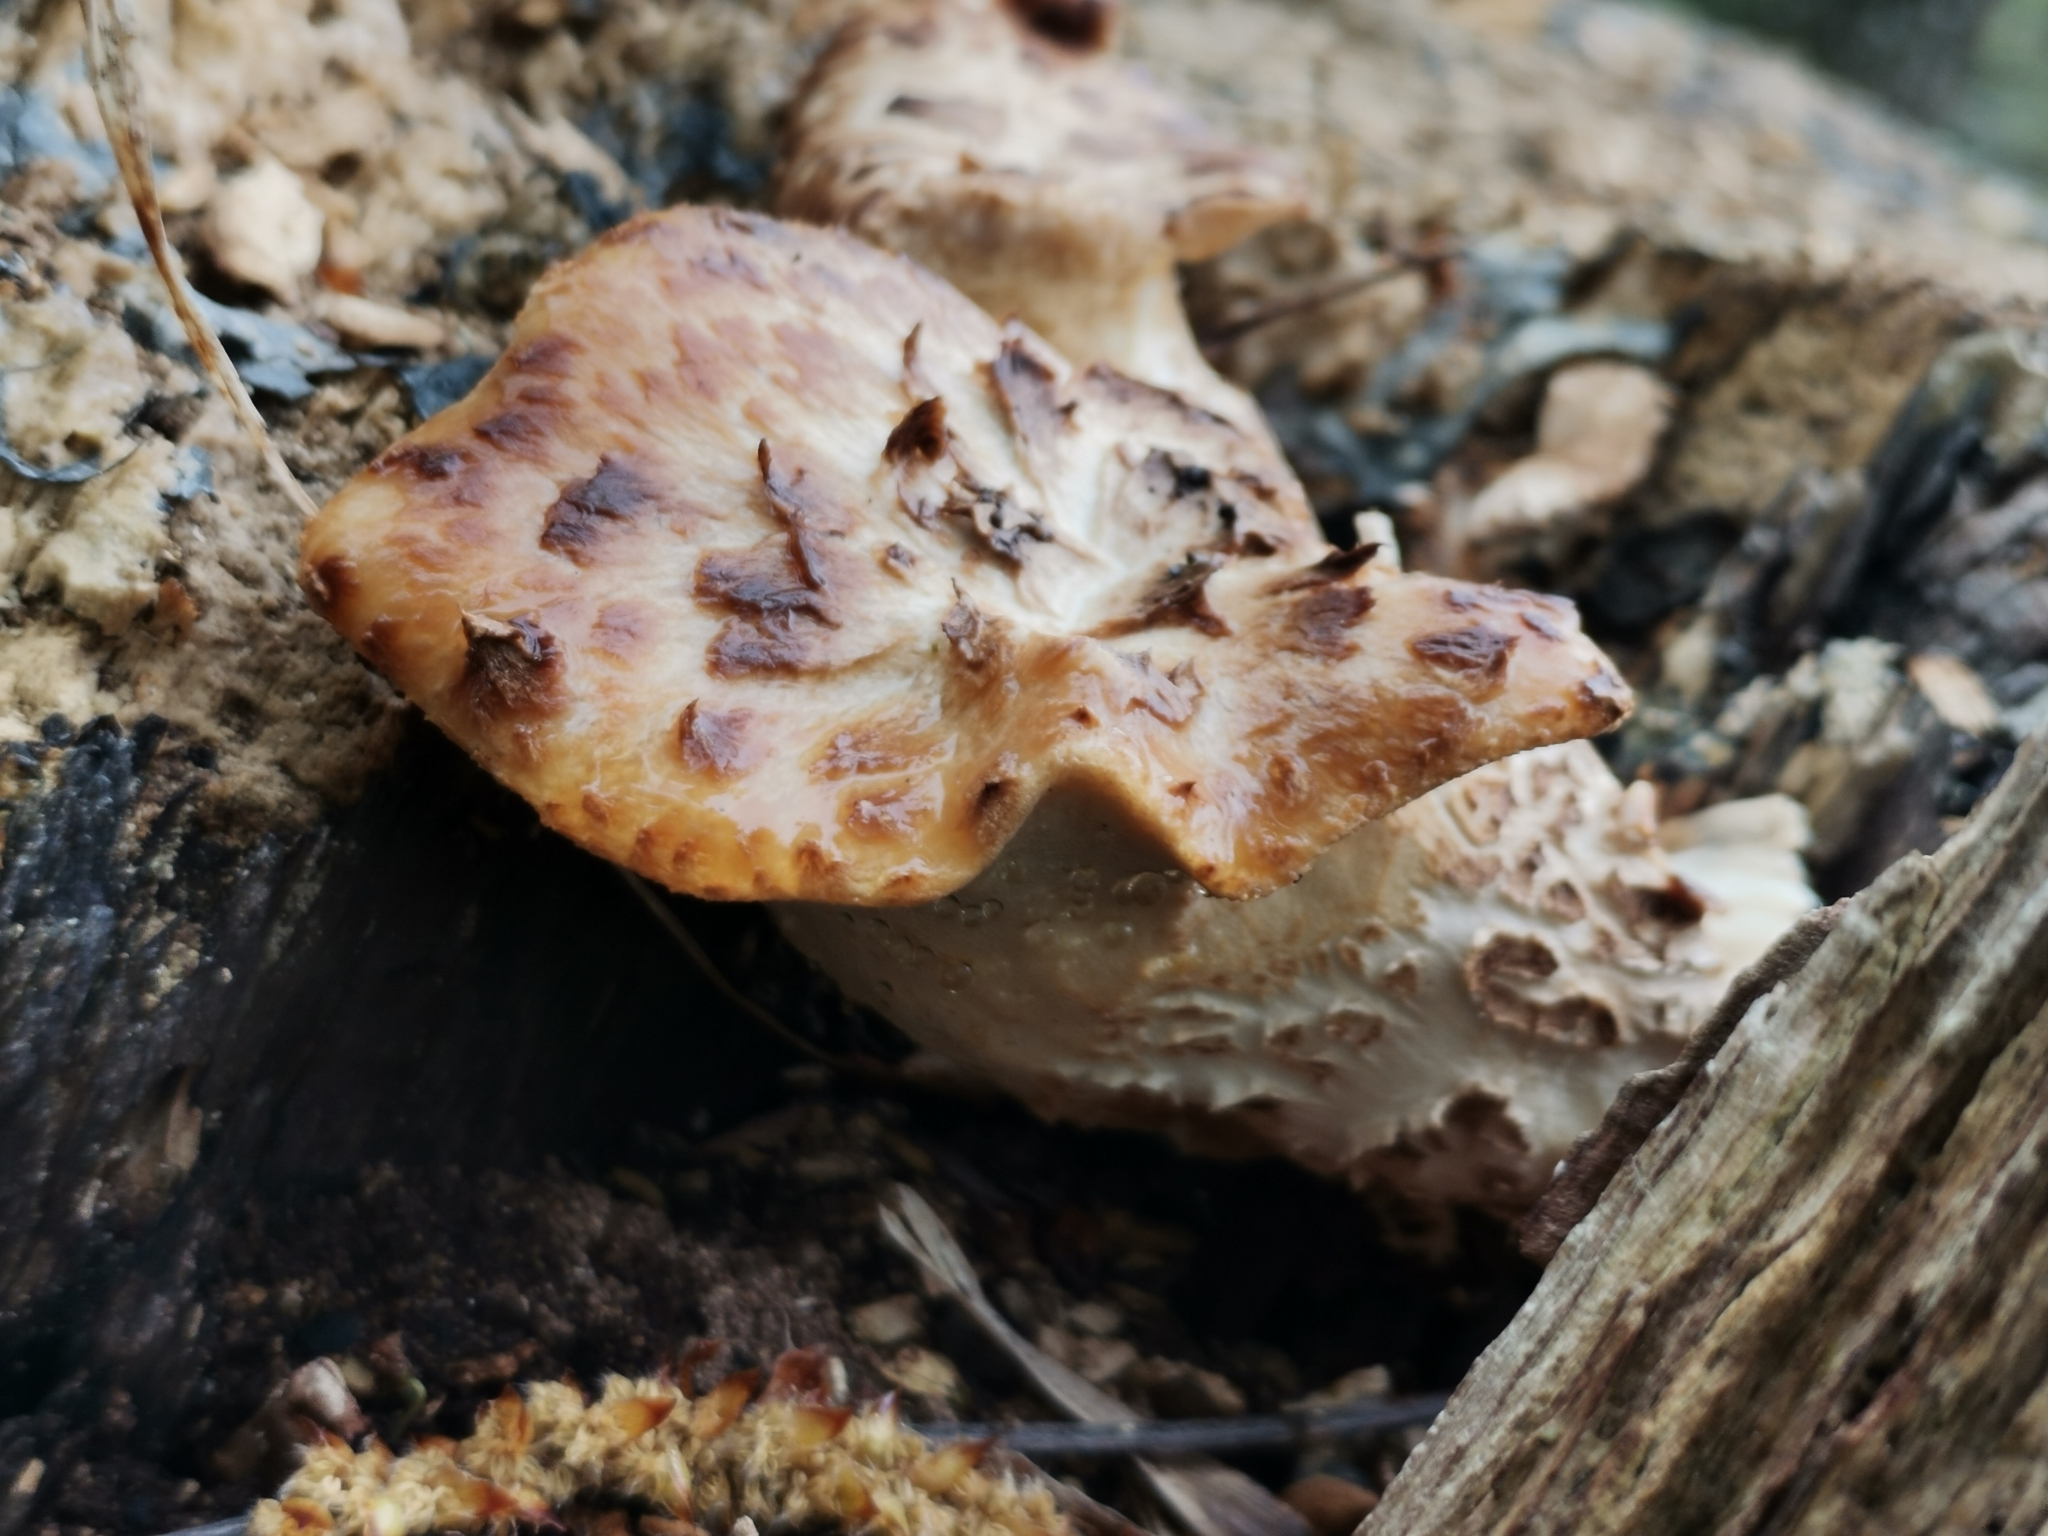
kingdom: Fungi
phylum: Basidiomycota
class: Agaricomycetes
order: Polyporales
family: Polyporaceae
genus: Cerioporus
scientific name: Cerioporus squamosus
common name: Dryad's saddle
